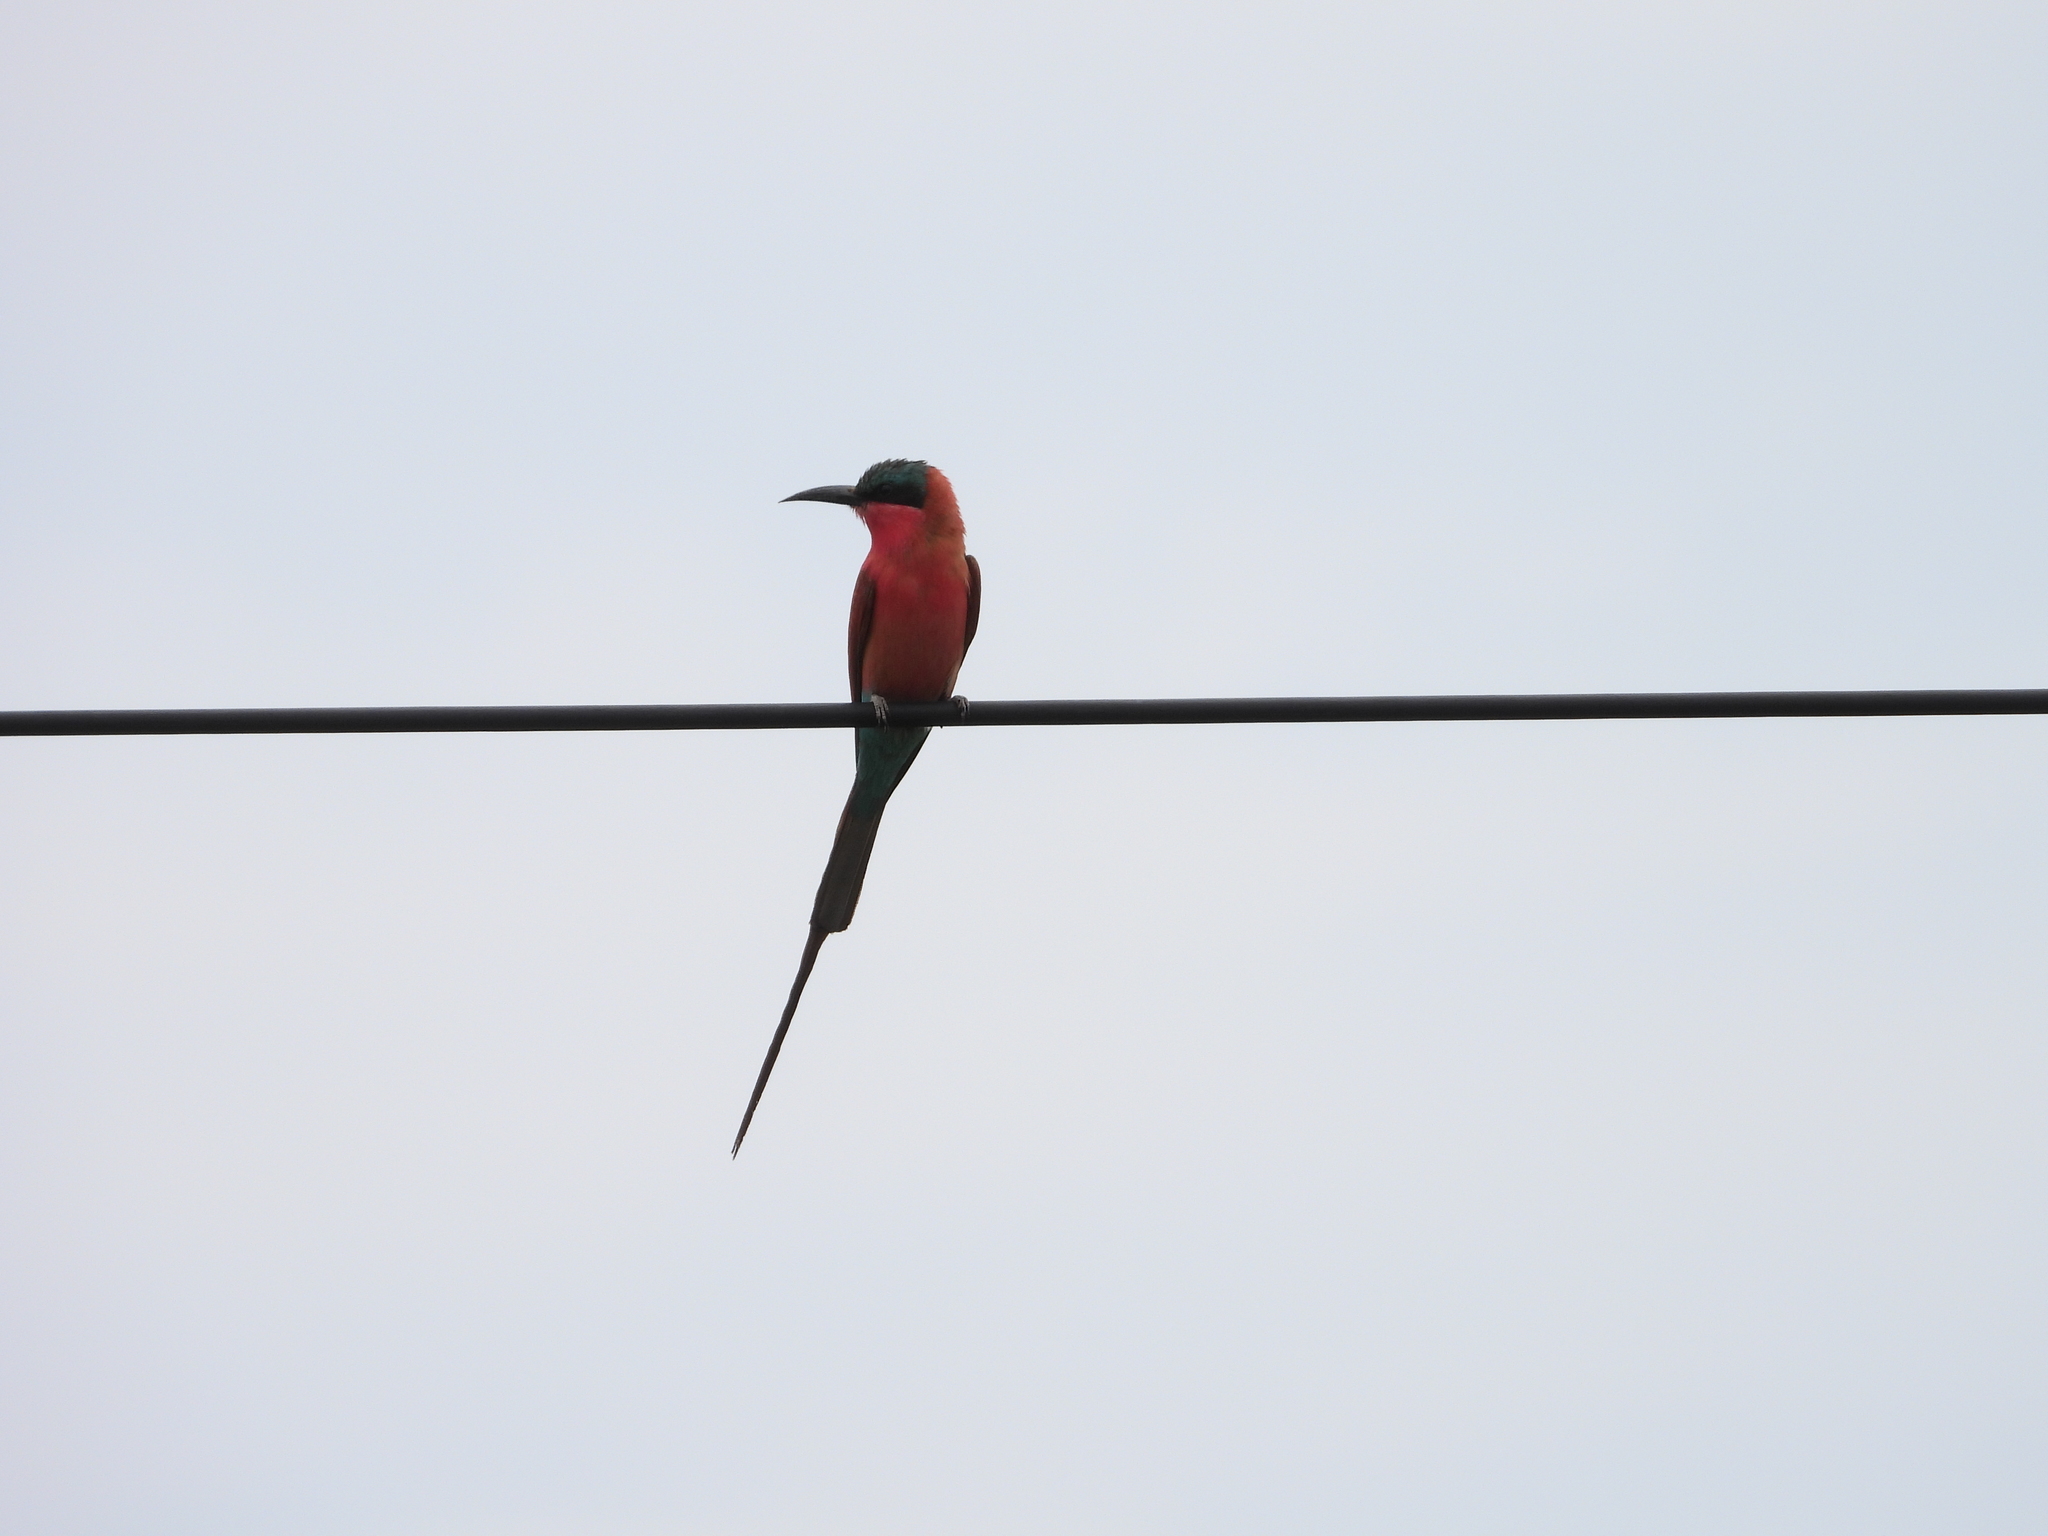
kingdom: Animalia
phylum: Chordata
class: Aves
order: Coraciiformes
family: Meropidae
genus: Merops
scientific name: Merops nubicoides
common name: Southern carmine bee-eater
